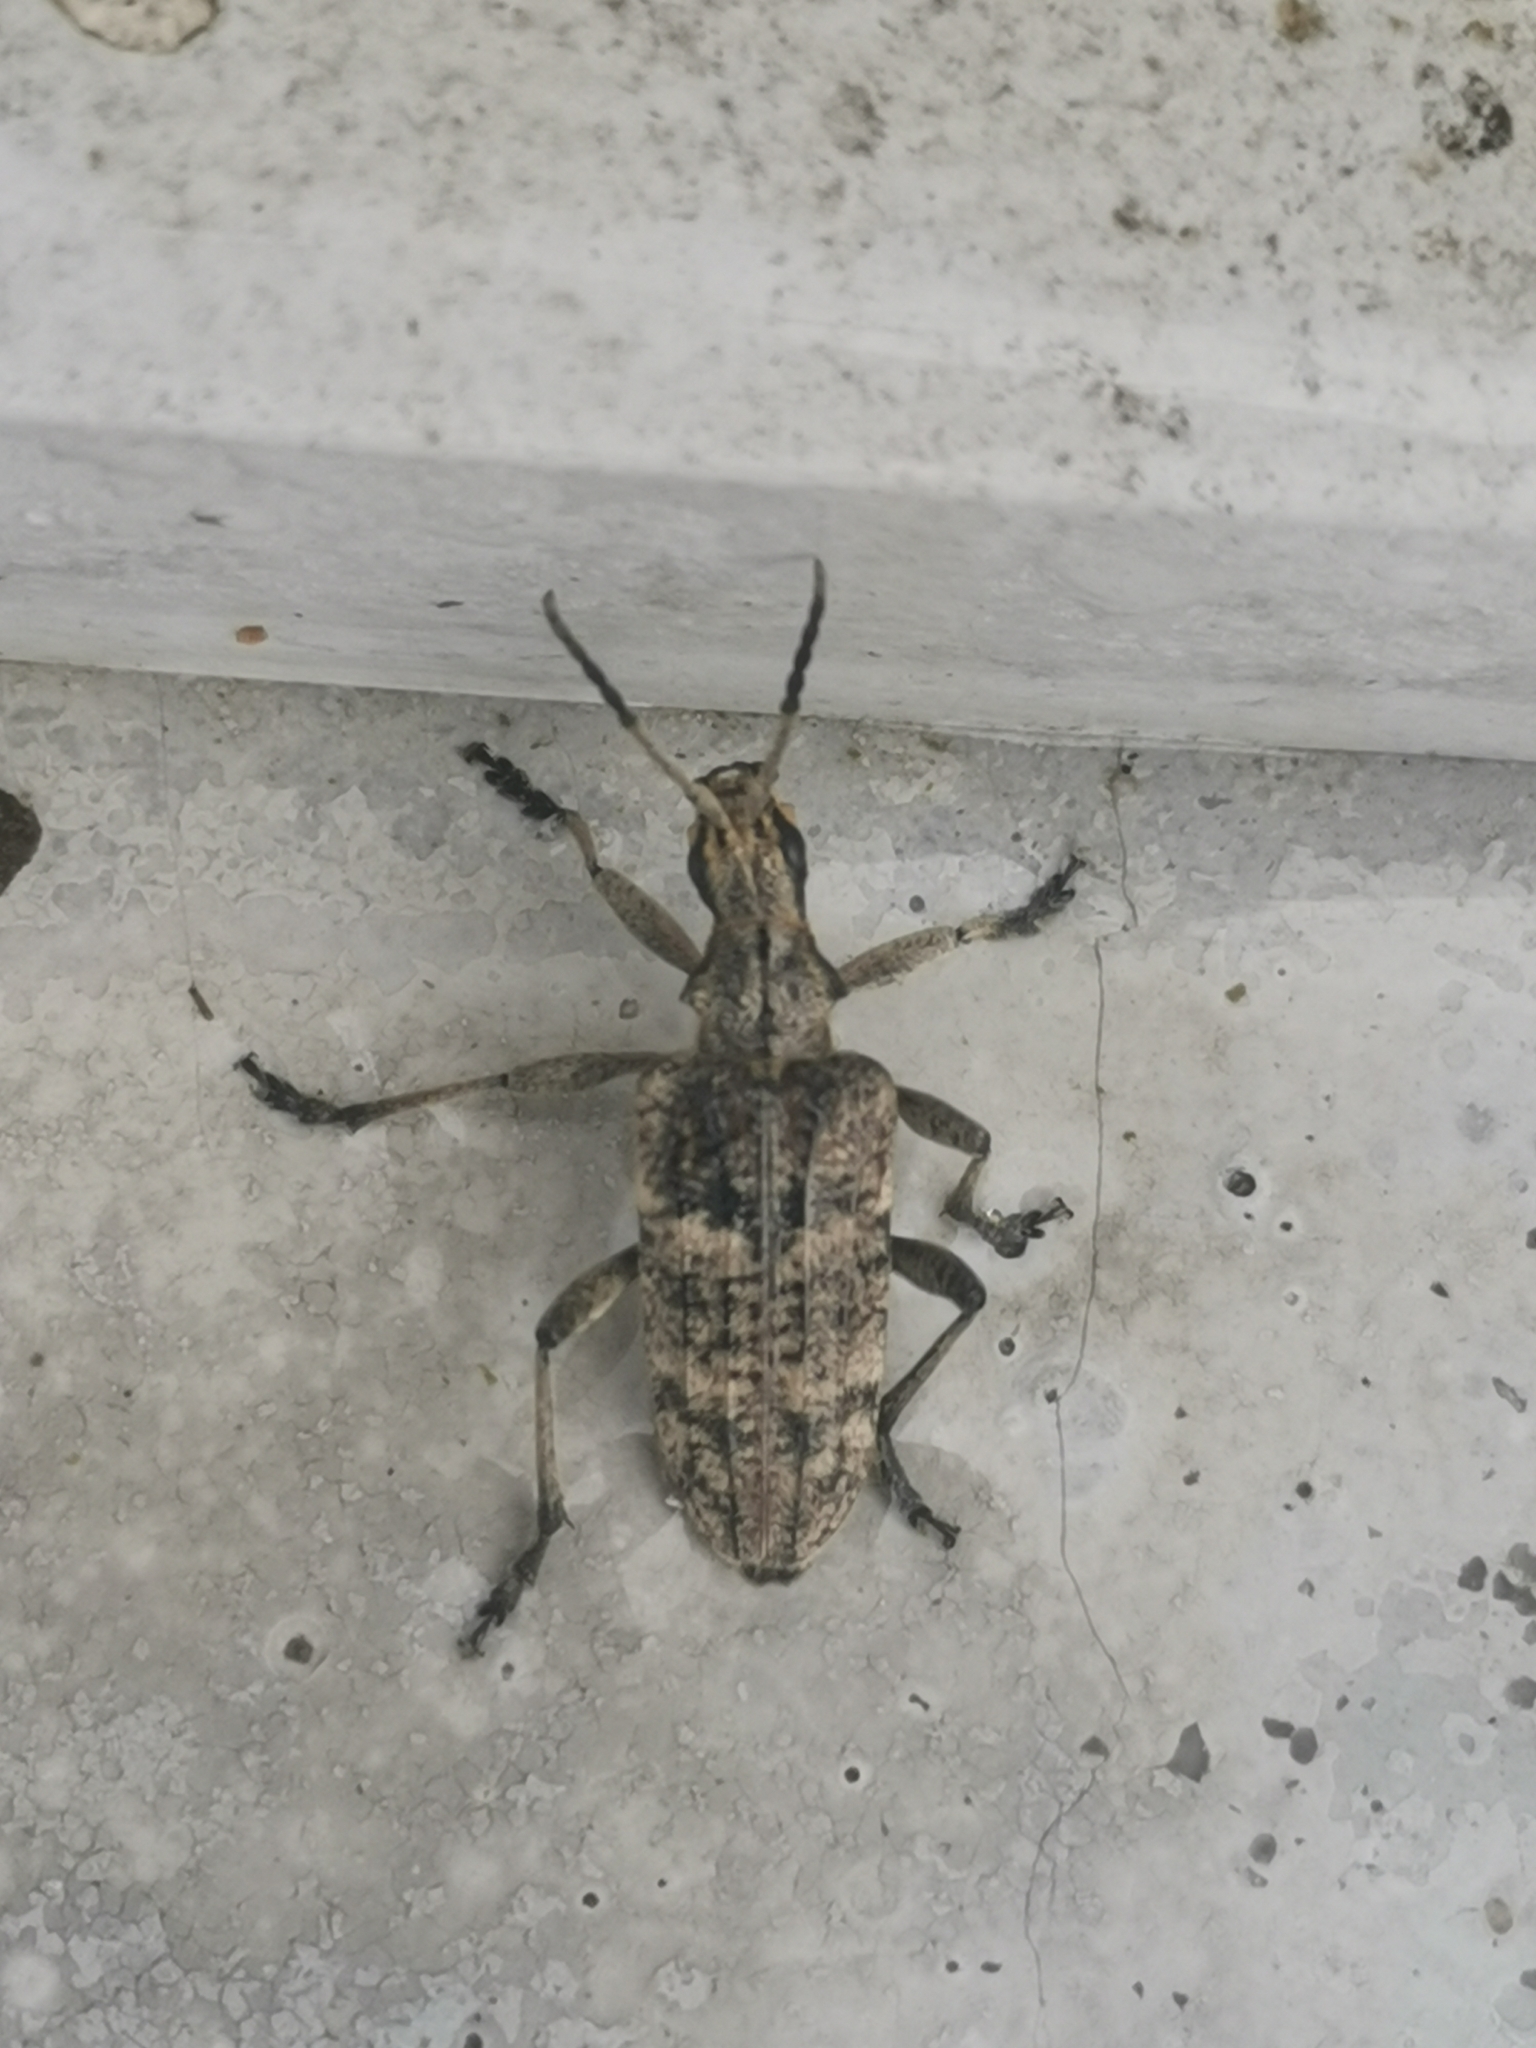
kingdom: Animalia
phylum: Arthropoda
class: Insecta
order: Coleoptera
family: Cerambycidae
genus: Rhagium
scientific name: Rhagium inquisitor
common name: Ribbed pine borer
